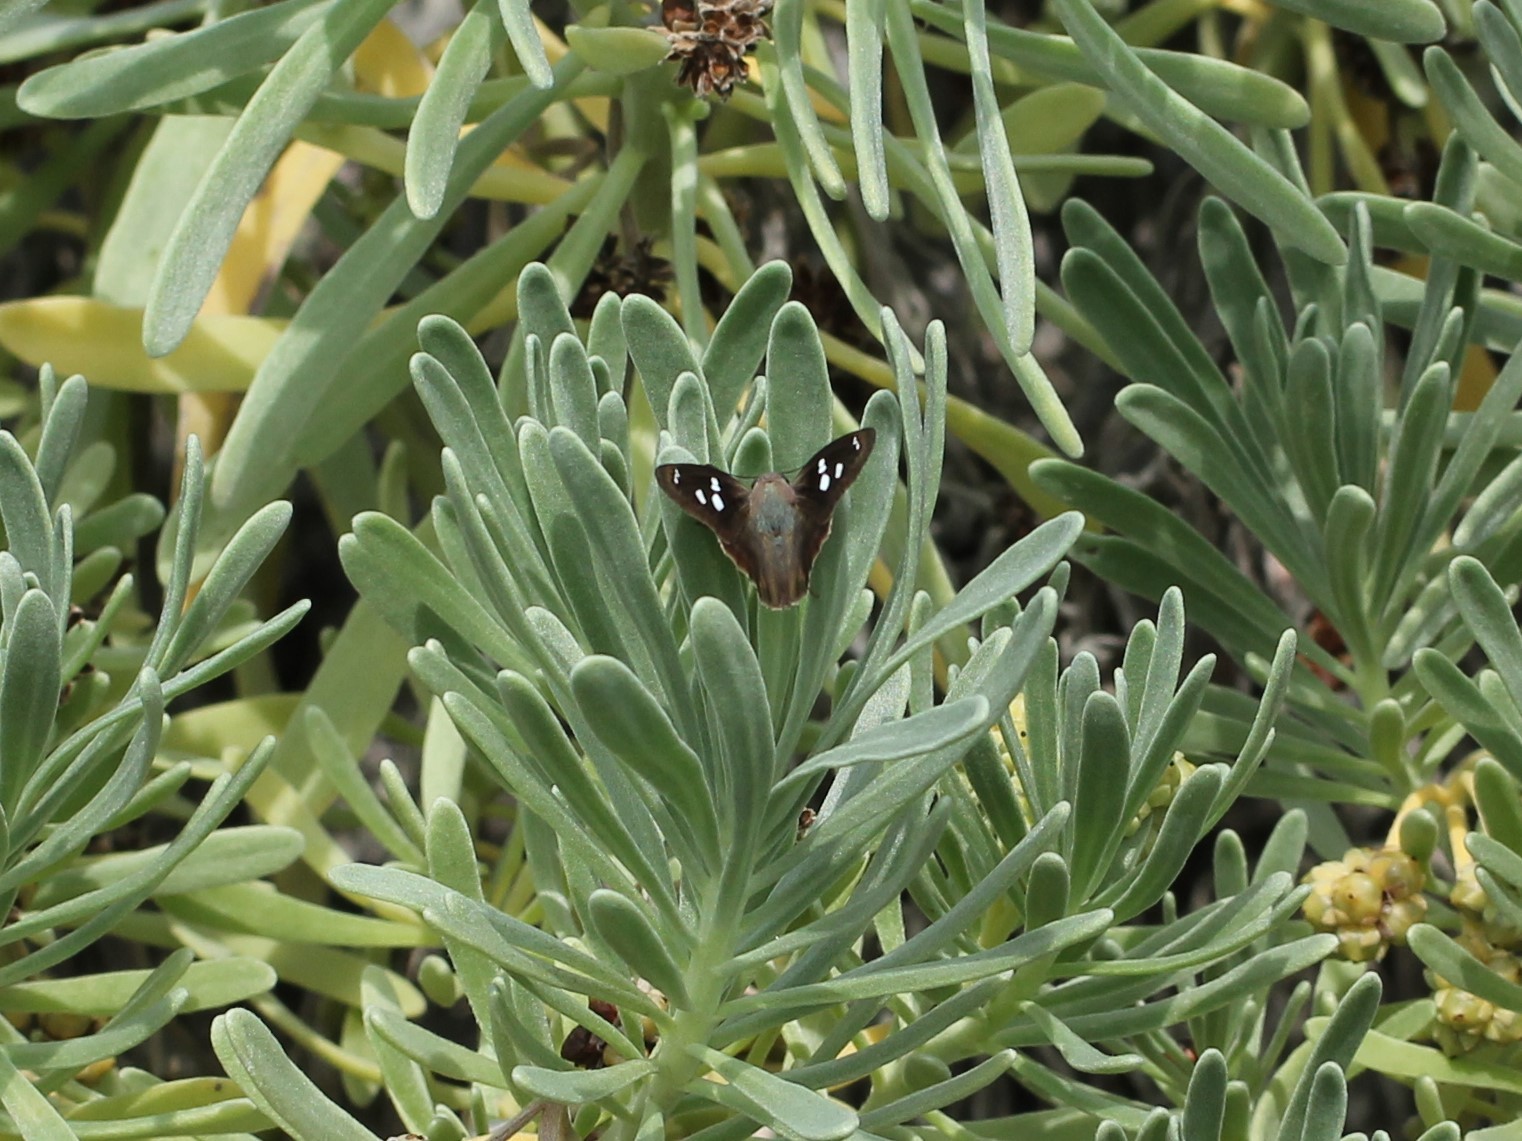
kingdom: Animalia
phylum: Arthropoda
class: Insecta
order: Lepidoptera
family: Hesperiidae
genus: Polygonus
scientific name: Polygonus leo
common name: Hammoch skipper
